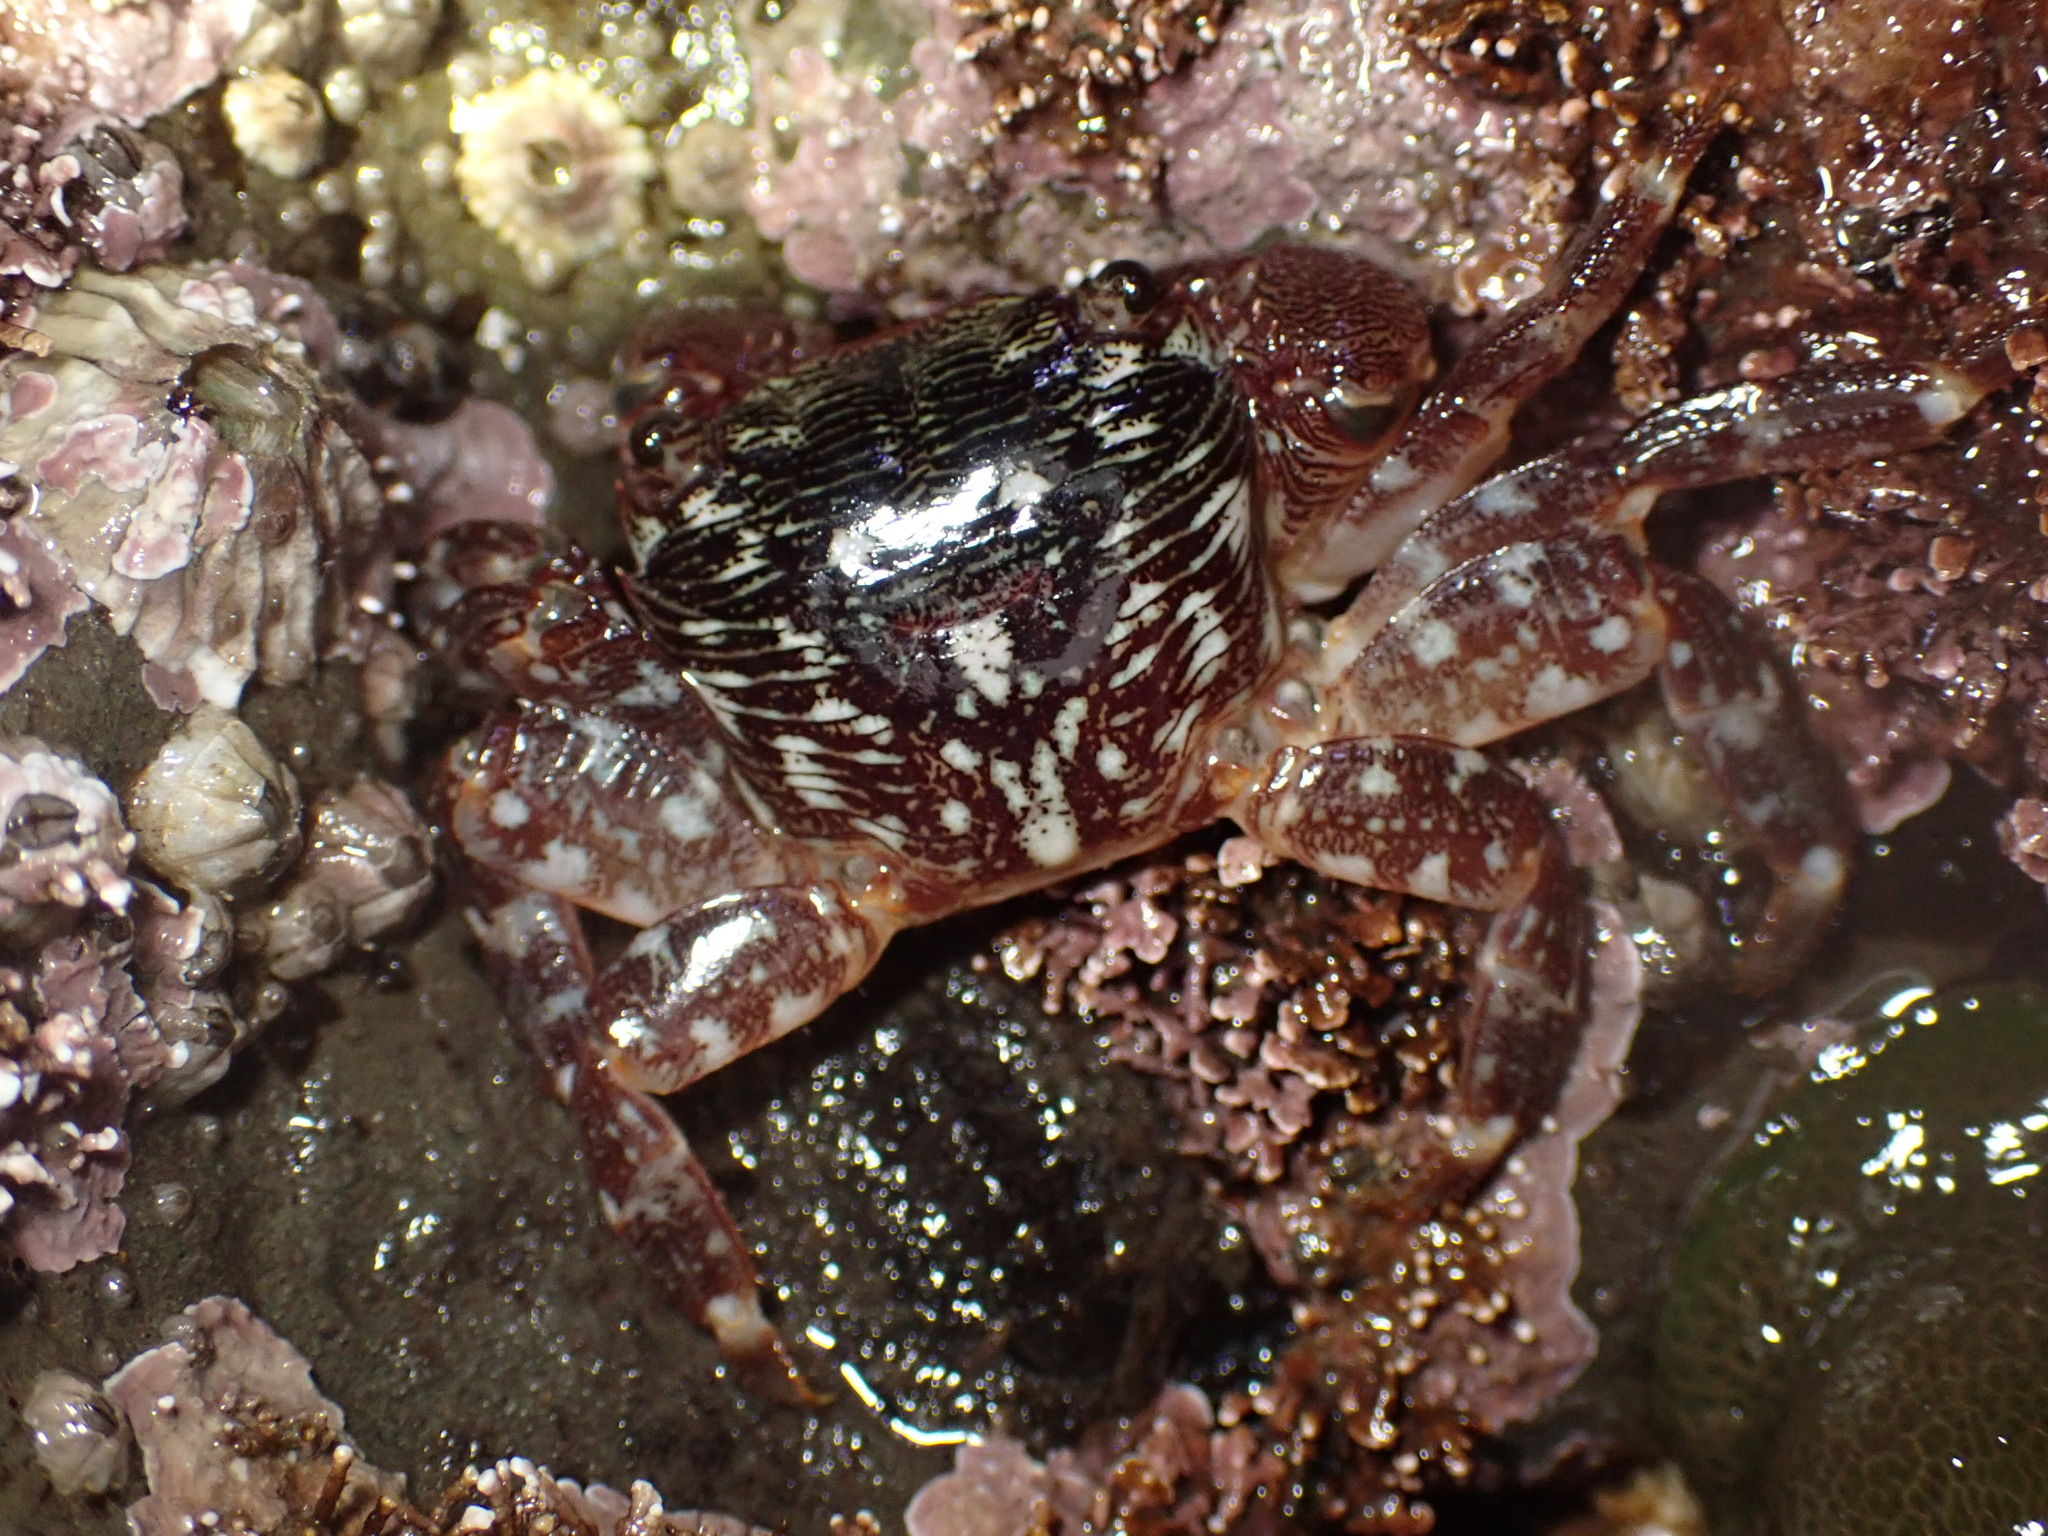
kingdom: Animalia
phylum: Arthropoda
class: Malacostraca
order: Decapoda
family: Grapsidae
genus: Pachygrapsus
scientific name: Pachygrapsus crassipes
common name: Striped shore crab
